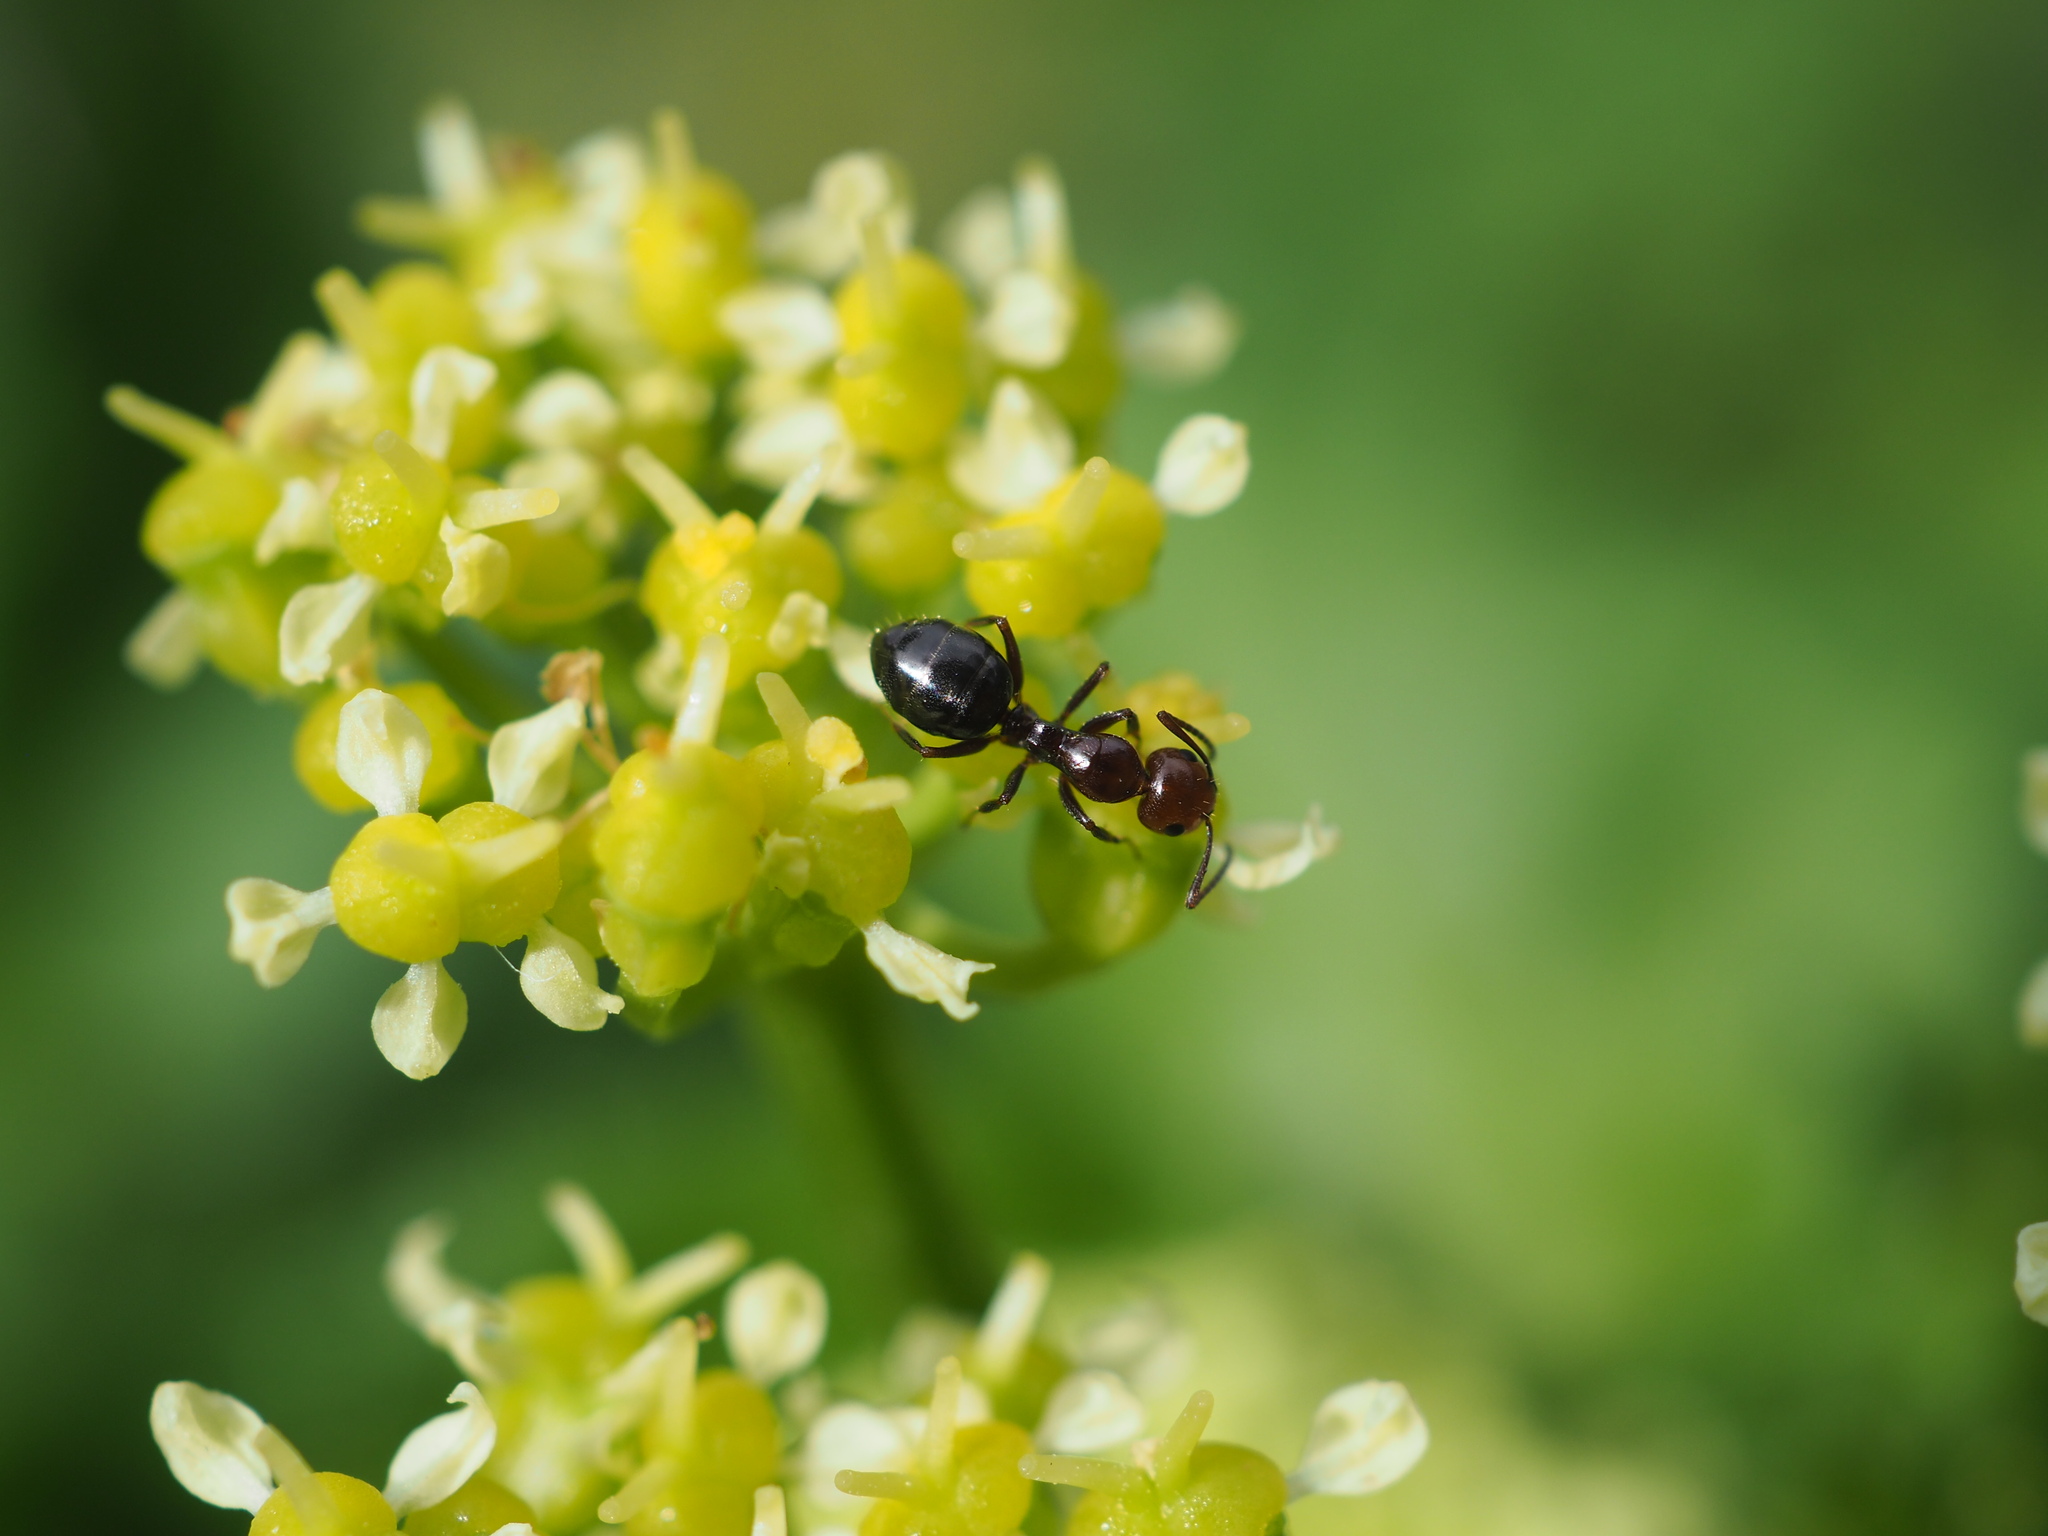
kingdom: Animalia
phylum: Arthropoda
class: Insecta
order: Hymenoptera
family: Formicidae
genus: Camponotus
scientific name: Camponotus lateralis
